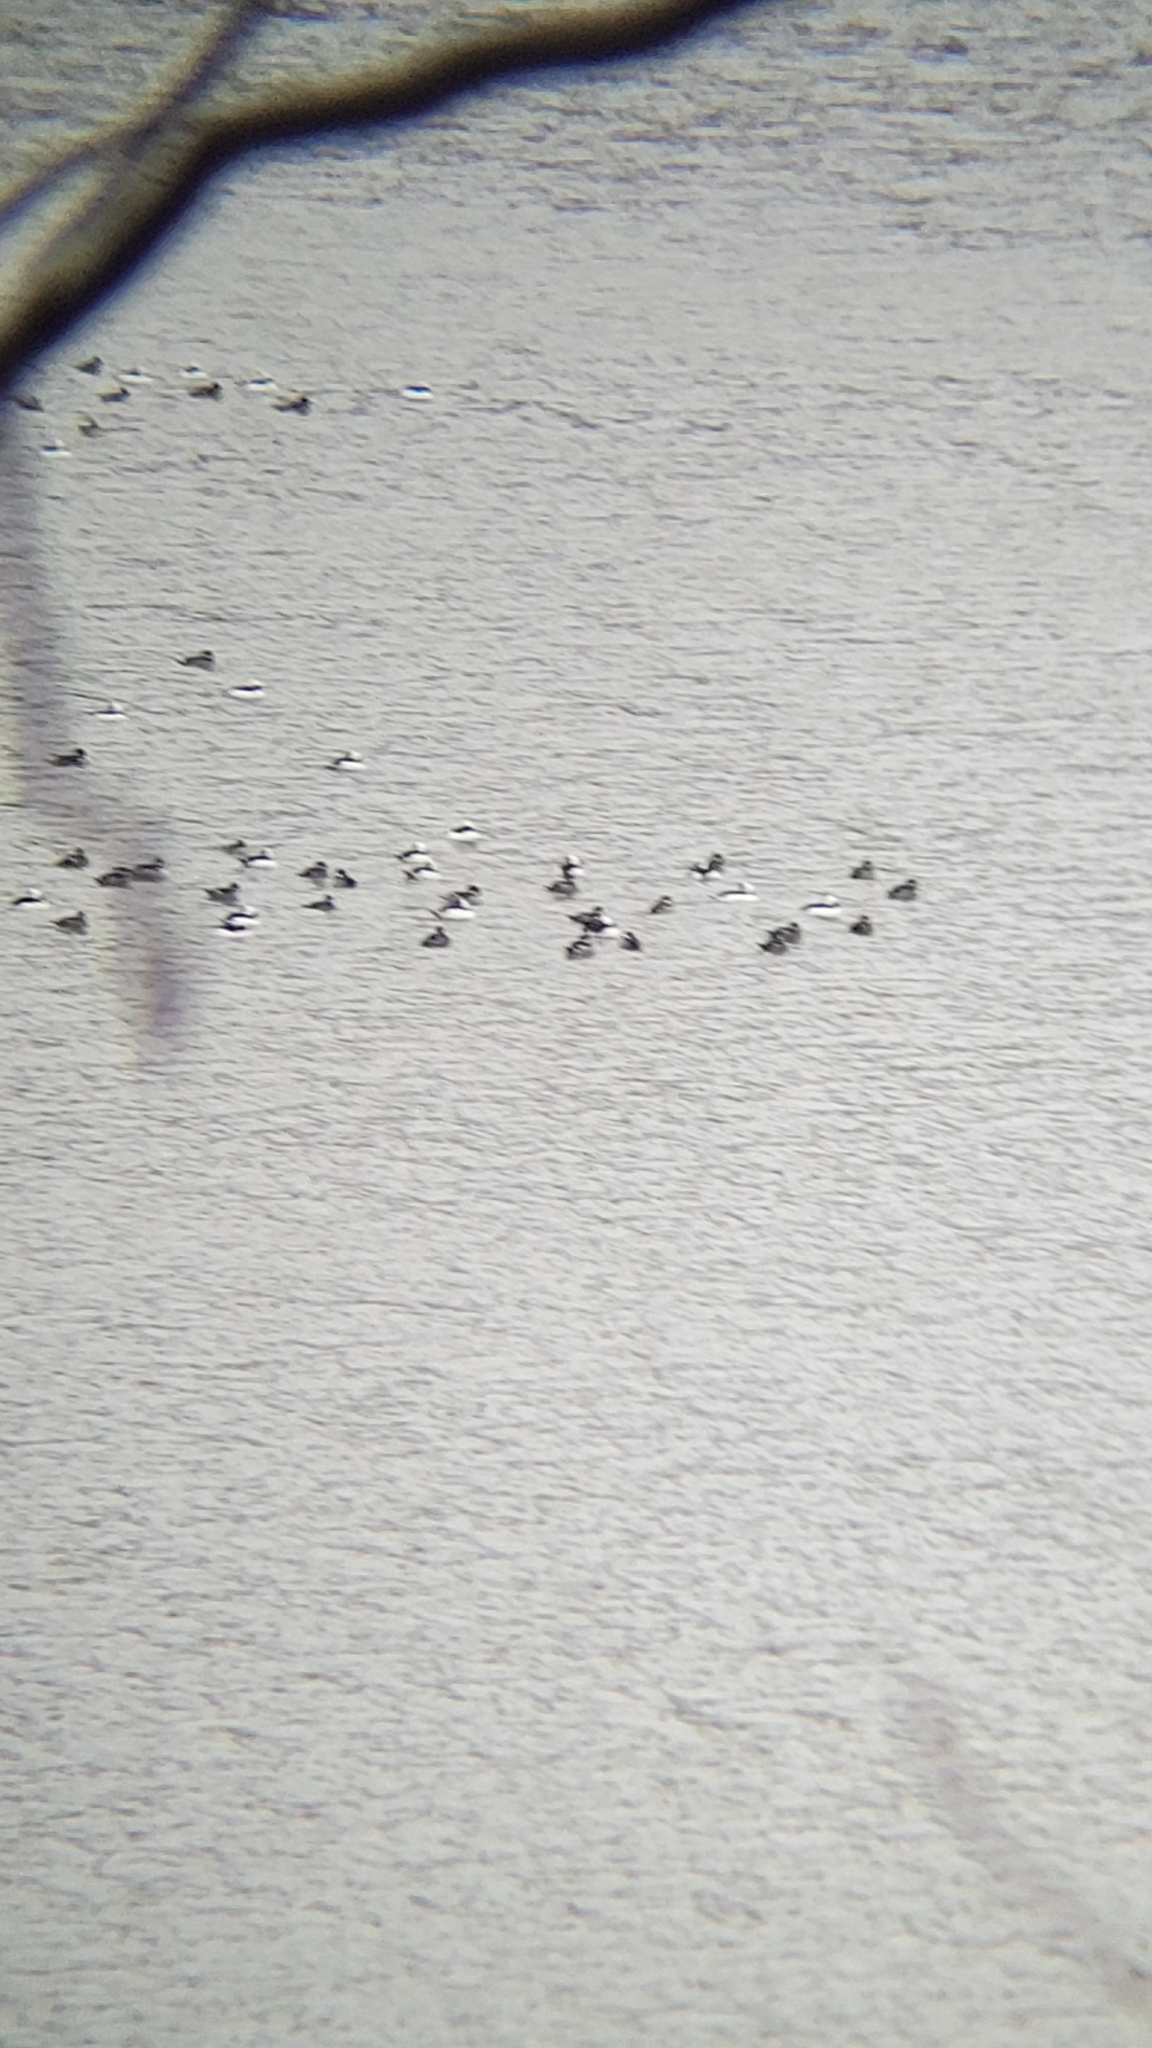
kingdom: Animalia
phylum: Chordata
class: Aves
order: Anseriformes
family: Anatidae
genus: Bucephala
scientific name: Bucephala albeola
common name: Bufflehead
